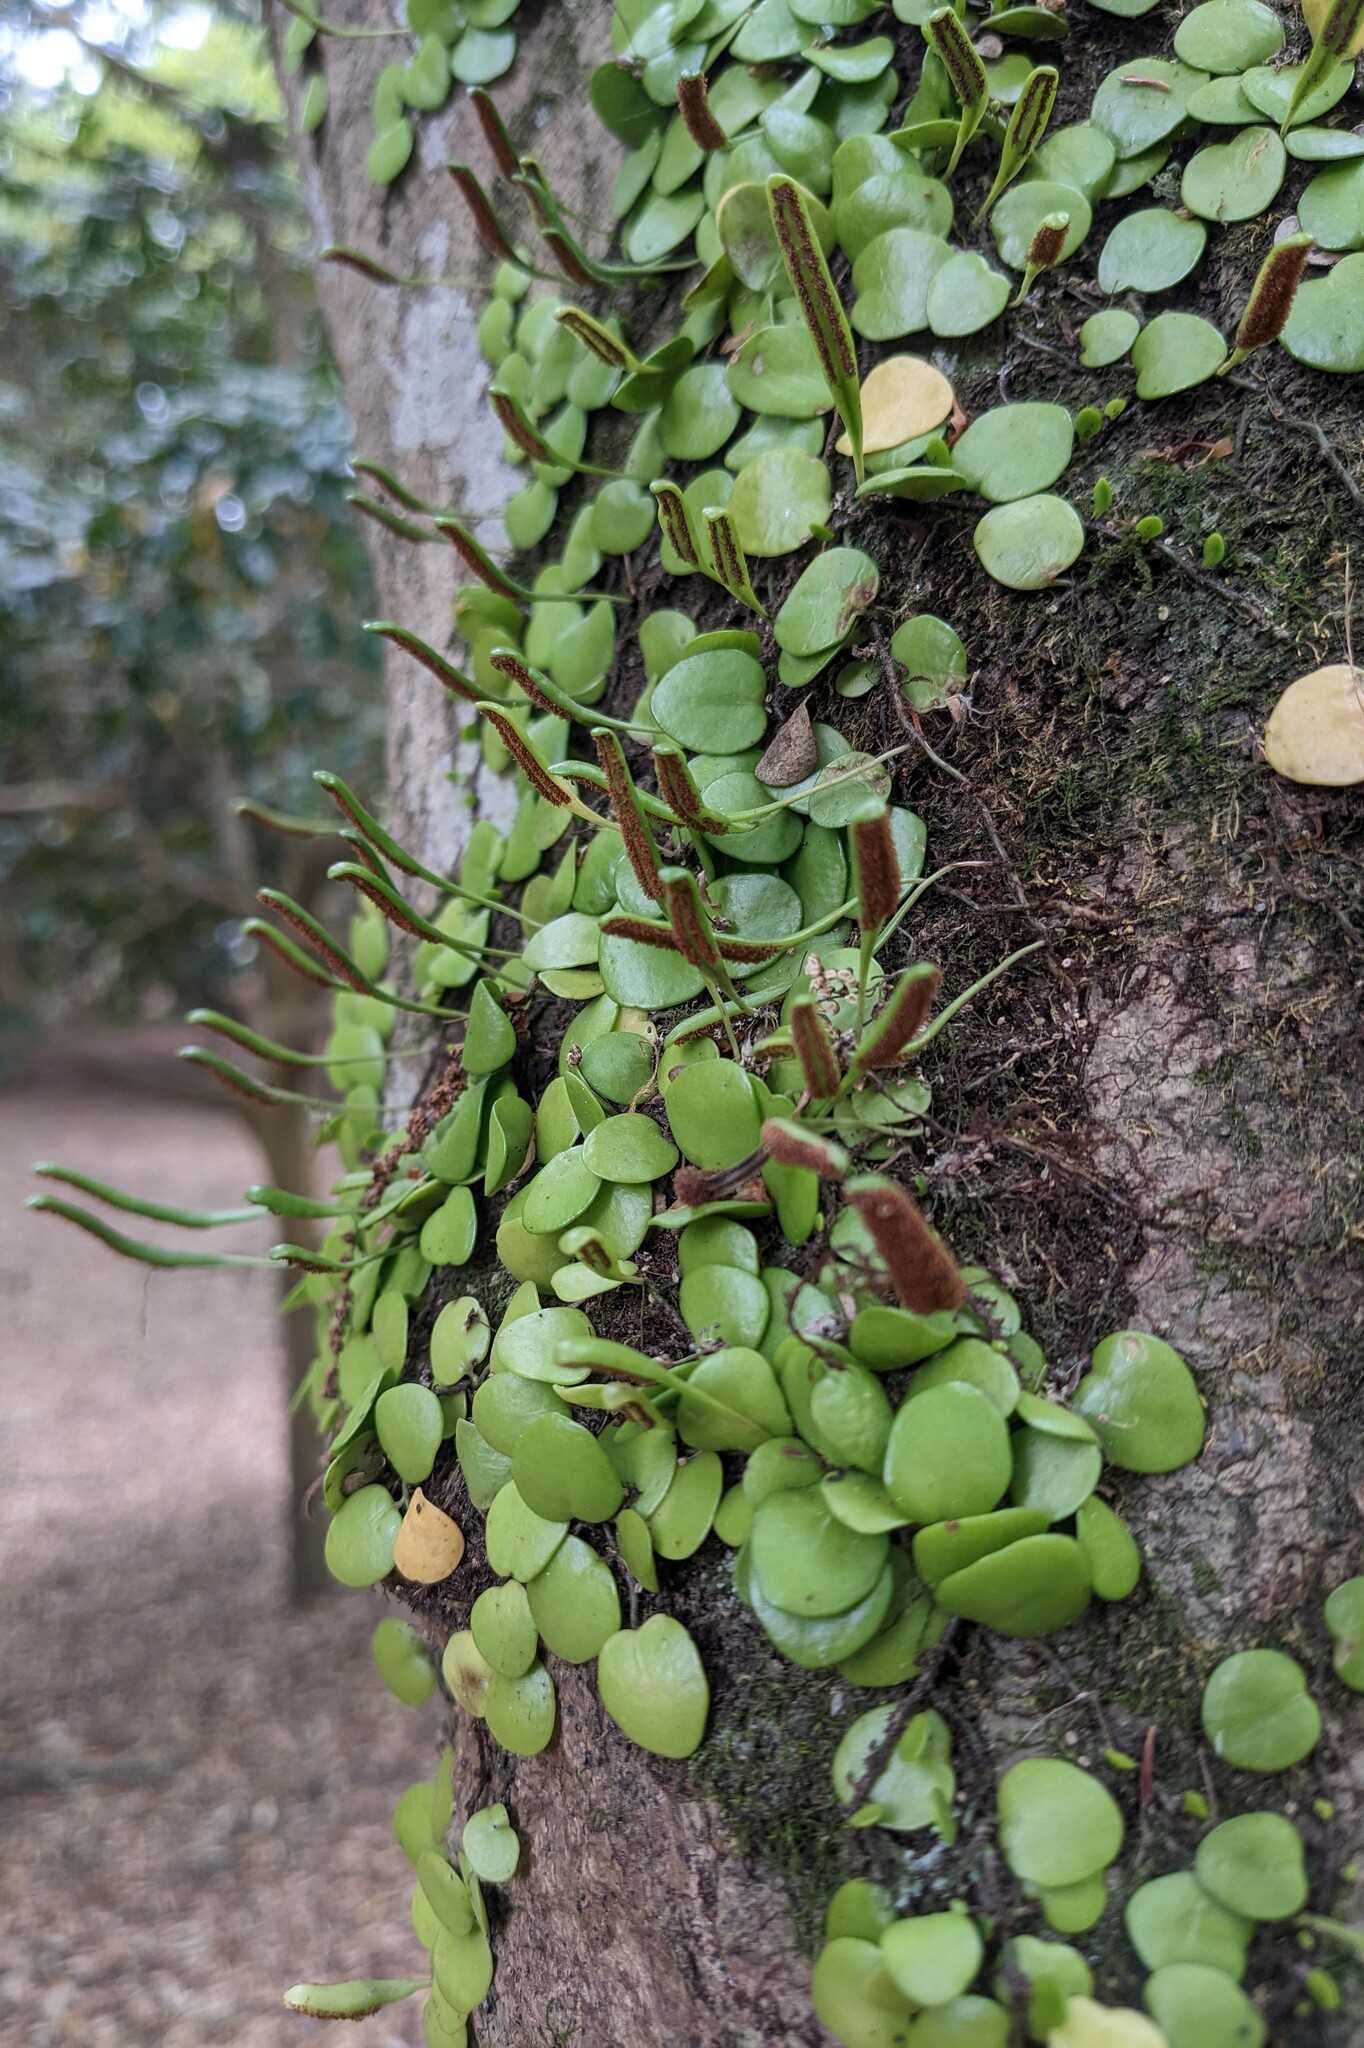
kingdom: Plantae
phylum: Tracheophyta
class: Polypodiopsida
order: Polypodiales
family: Polypodiaceae
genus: Lepisorus
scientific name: Lepisorus microphyllus
